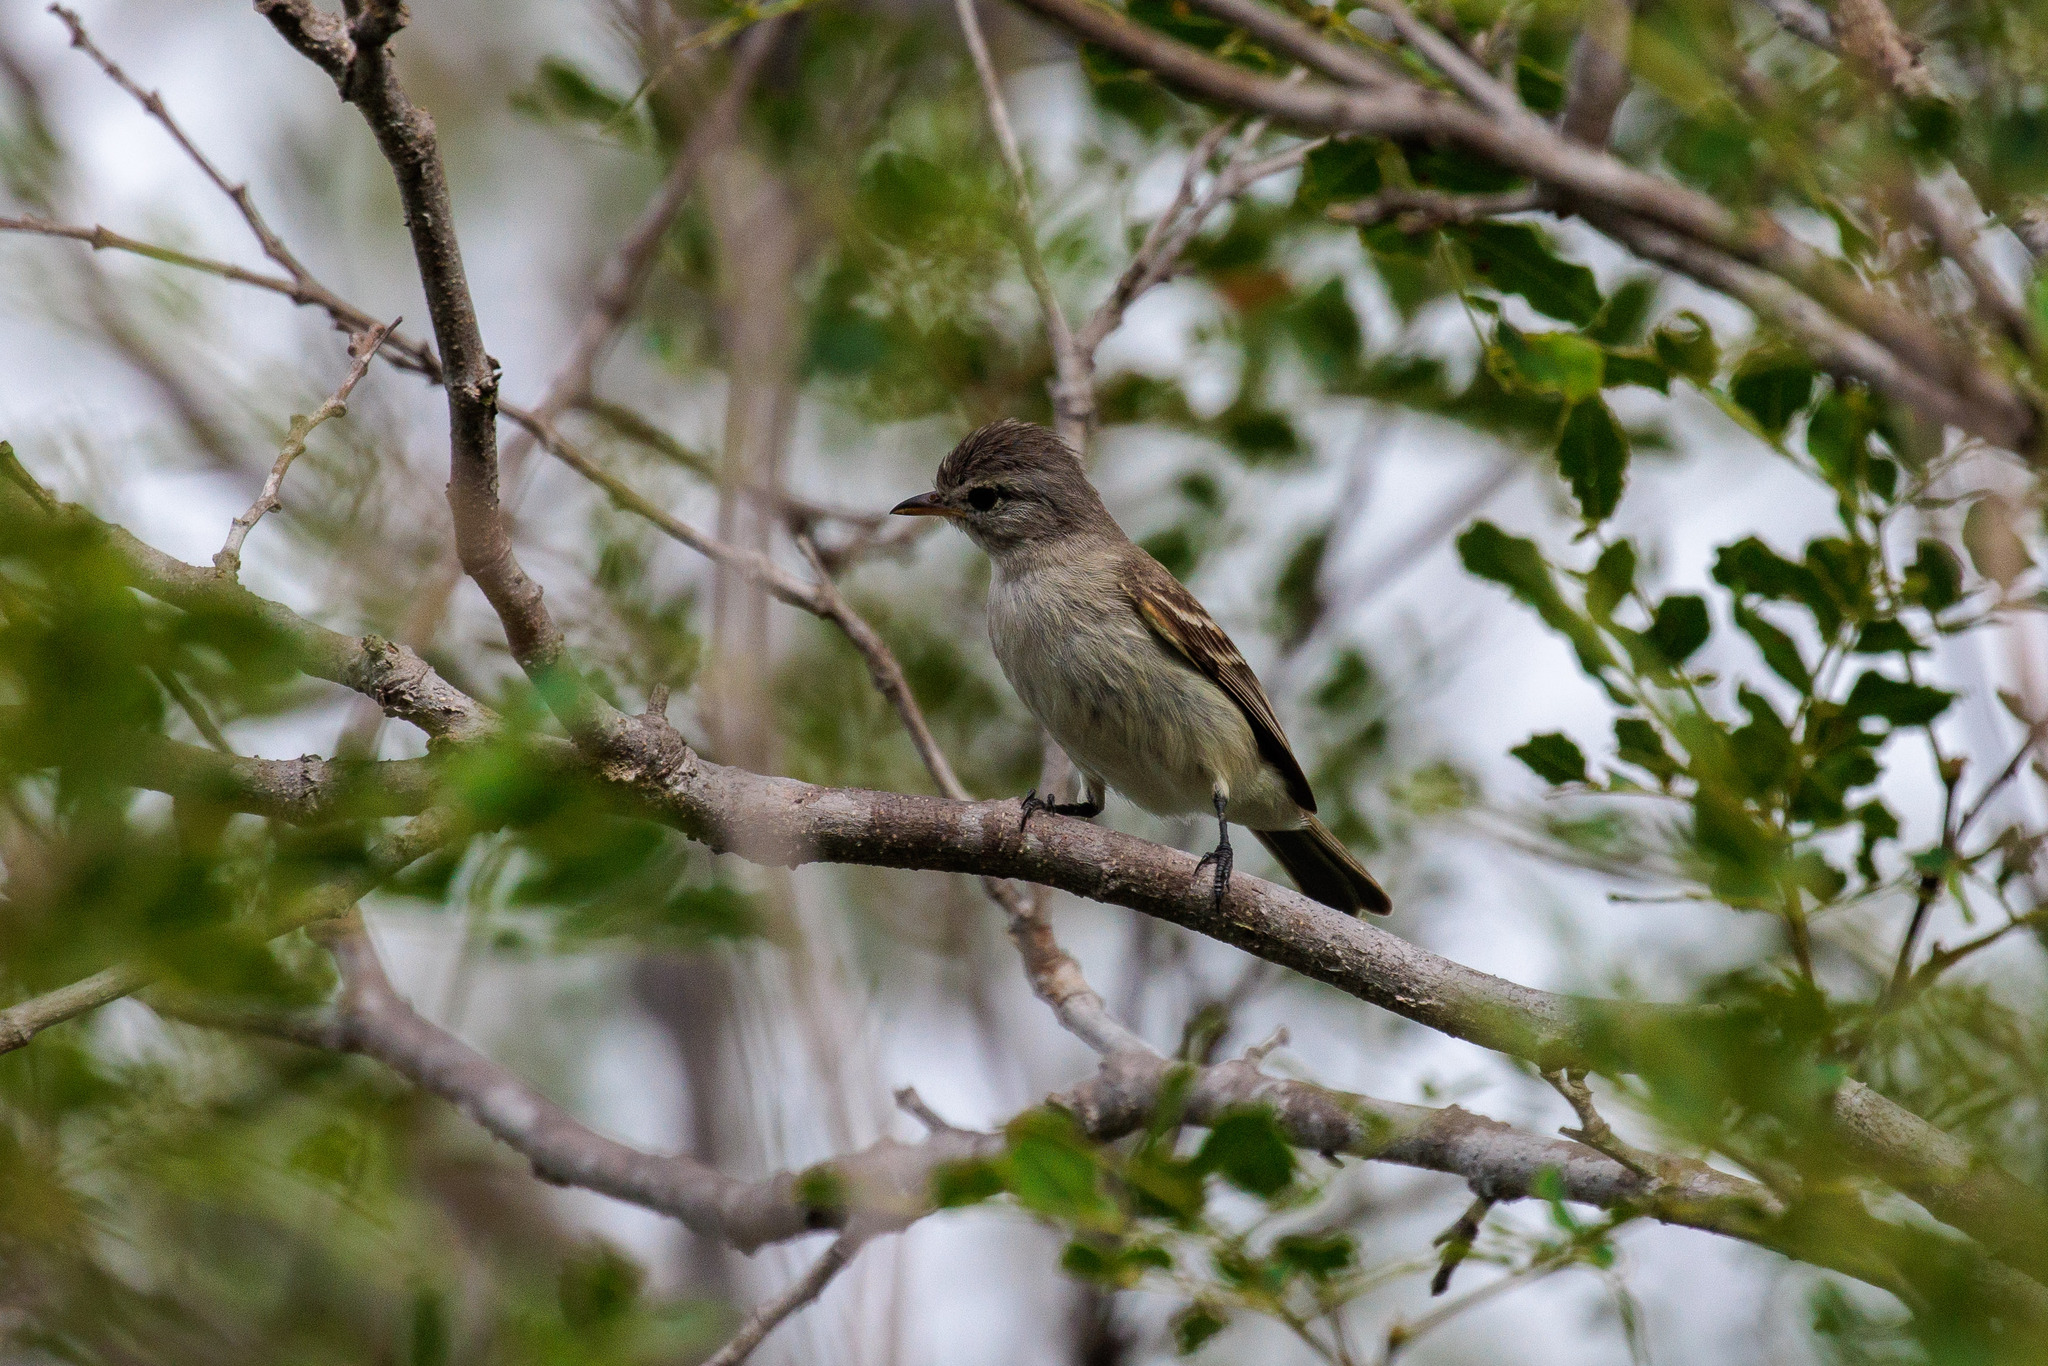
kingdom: Animalia
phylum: Chordata
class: Aves
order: Passeriformes
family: Tyrannidae
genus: Camptostoma
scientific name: Camptostoma obsoletum
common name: Southern beardless-tyrannulet
